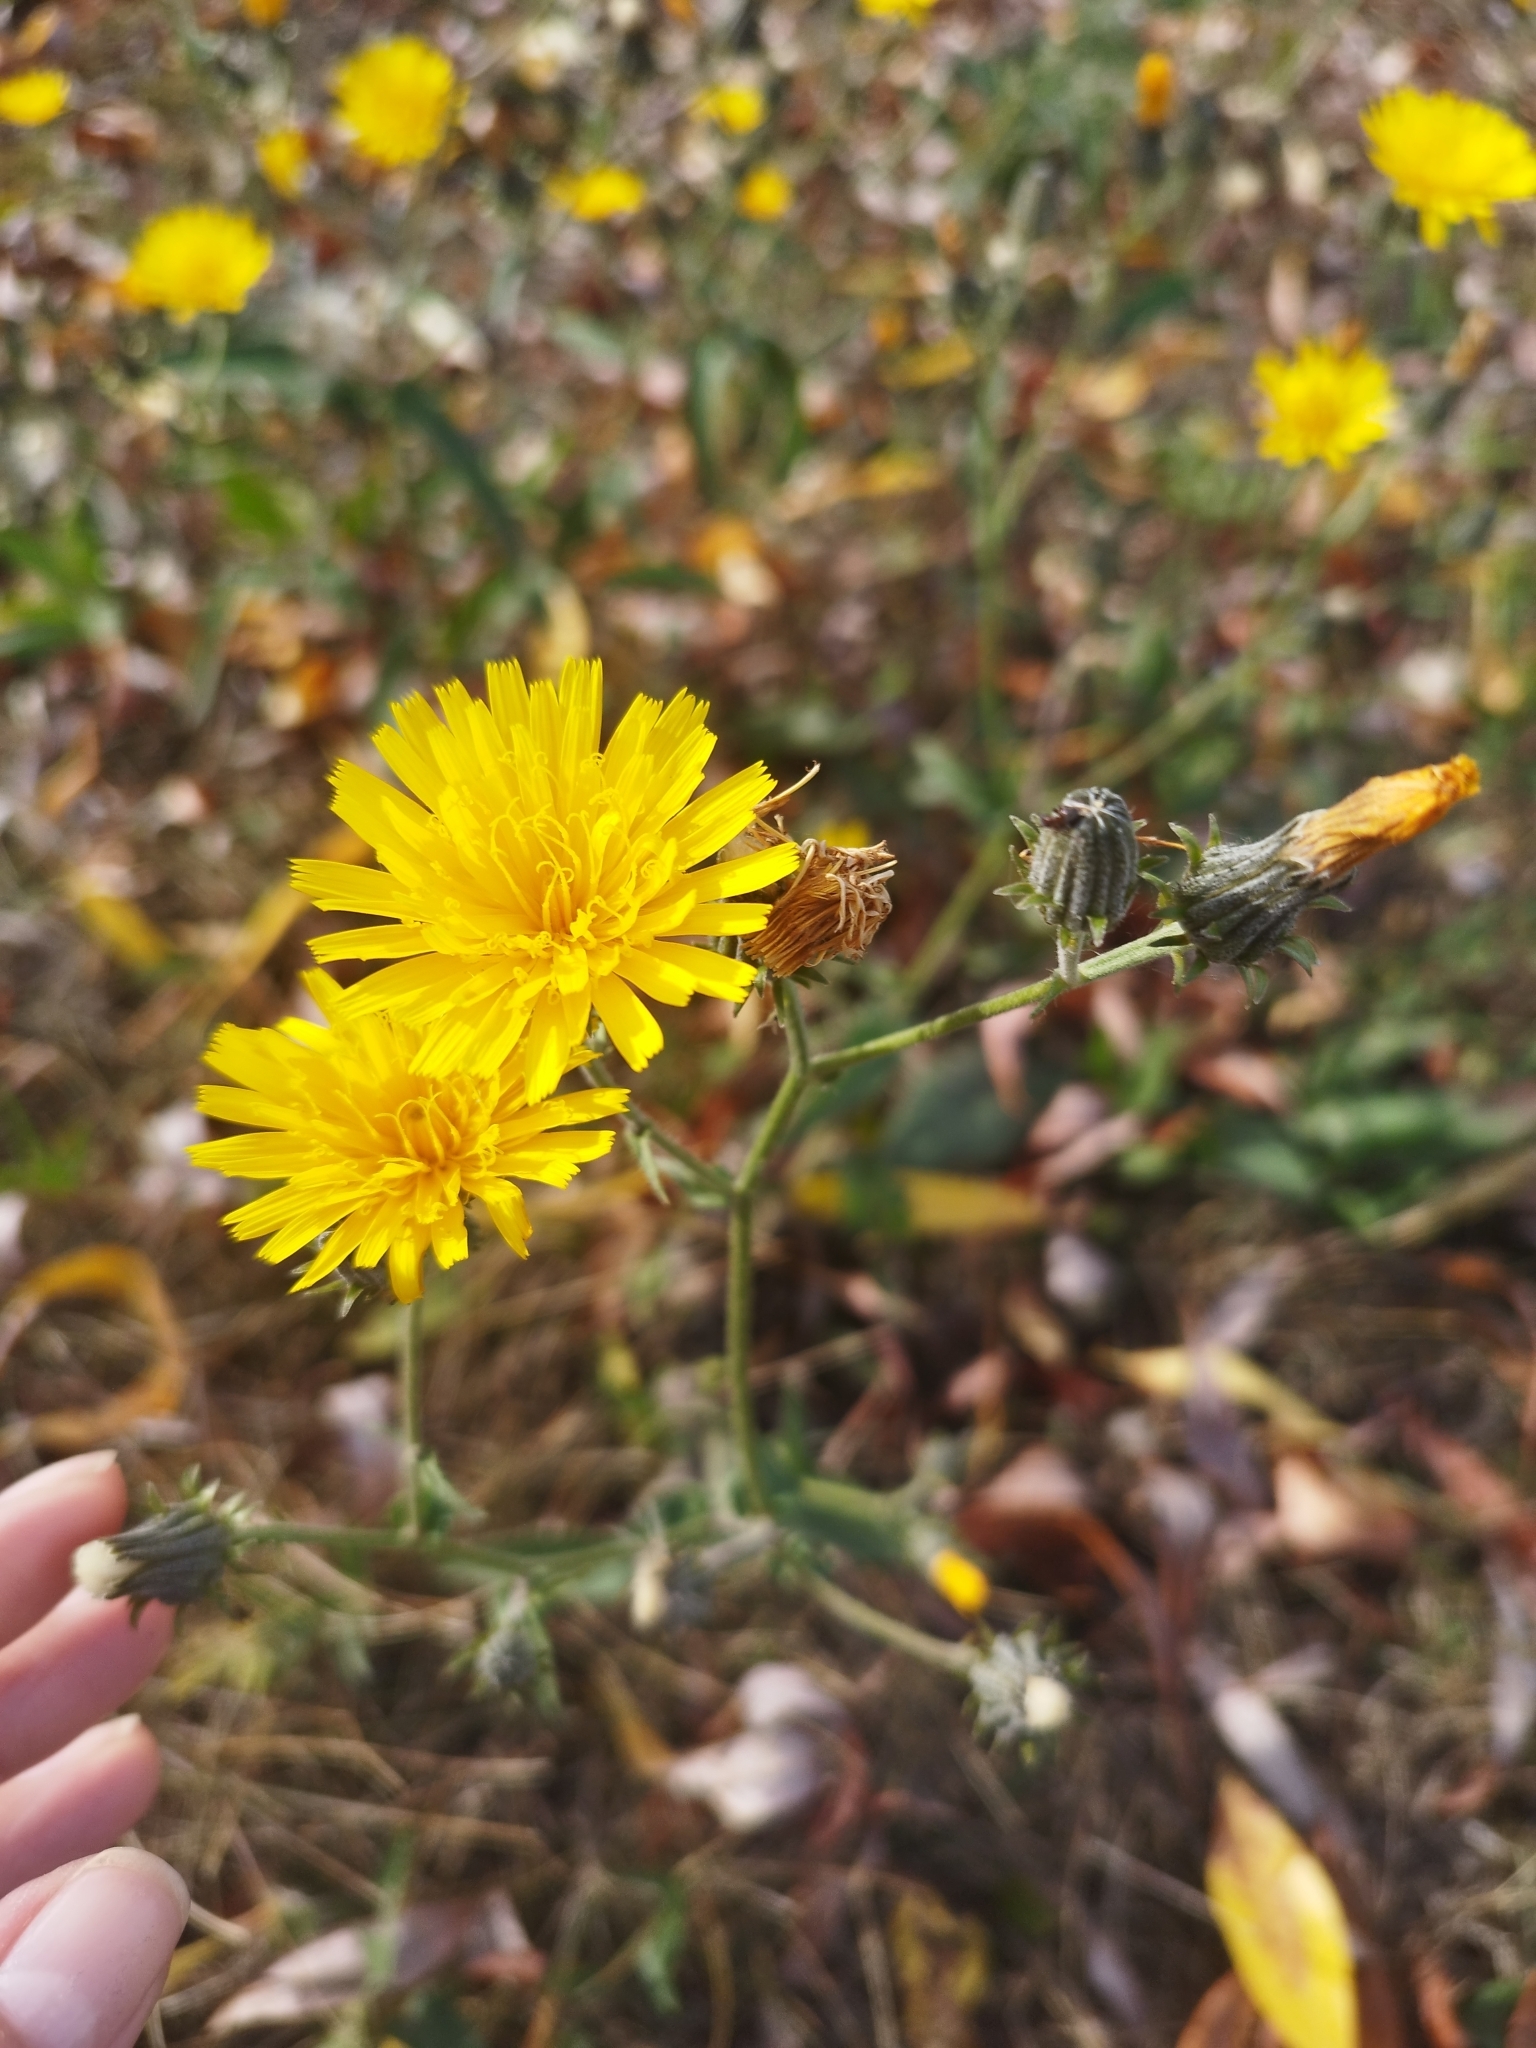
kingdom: Plantae
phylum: Tracheophyta
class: Magnoliopsida
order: Asterales
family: Asteraceae
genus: Picris
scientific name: Picris hieracioides
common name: Hawkweed oxtongue
